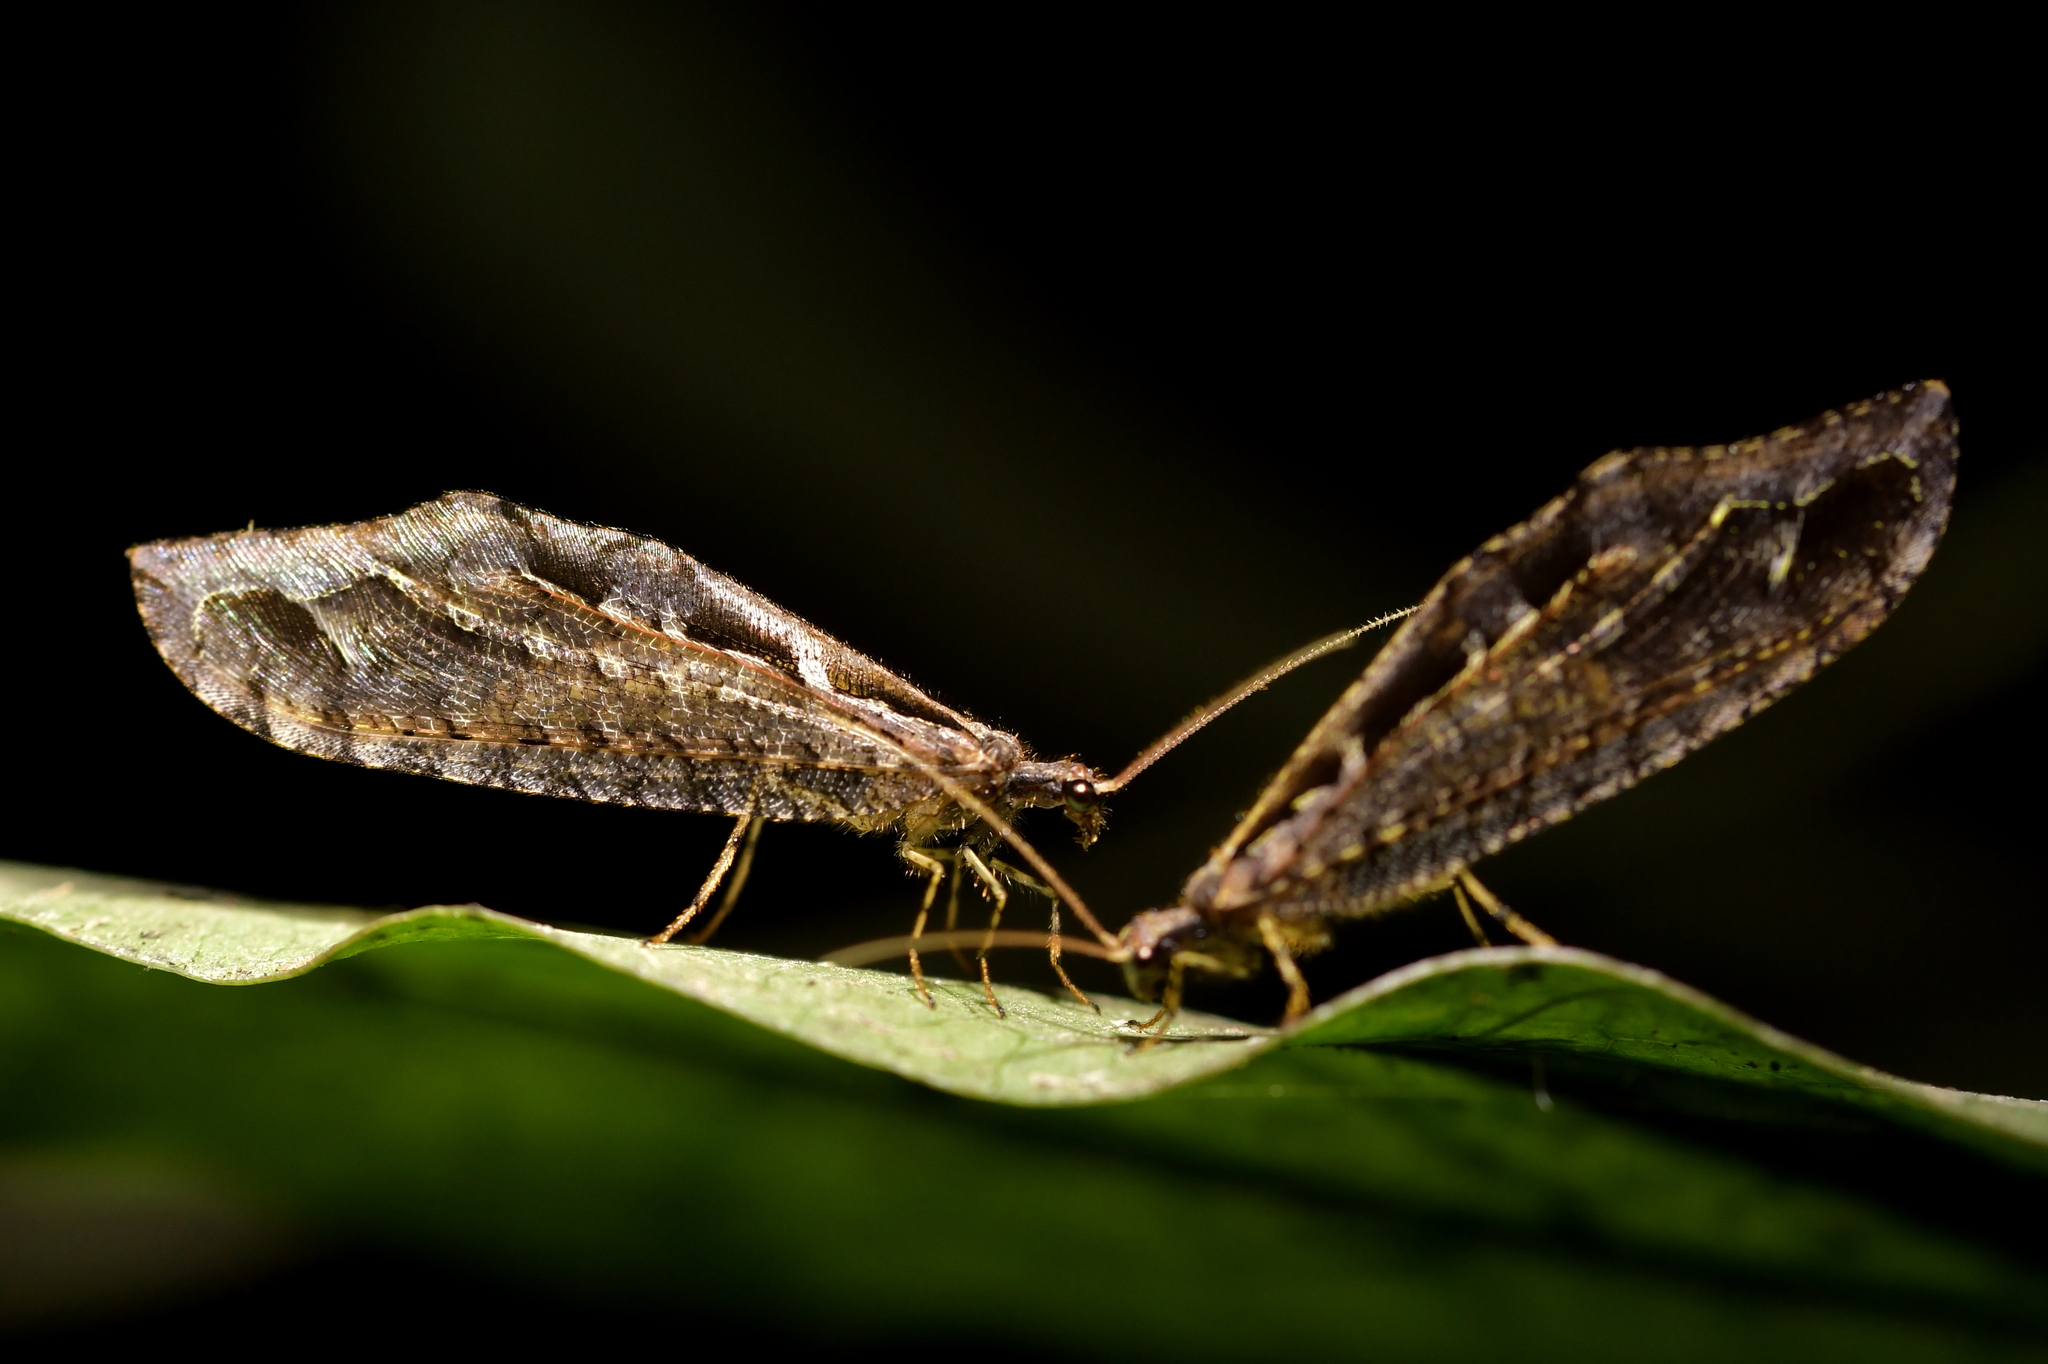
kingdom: Animalia
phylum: Arthropoda
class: Insecta
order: Neuroptera
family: Osmylidae
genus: Kempynus
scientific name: Kempynus incisus
